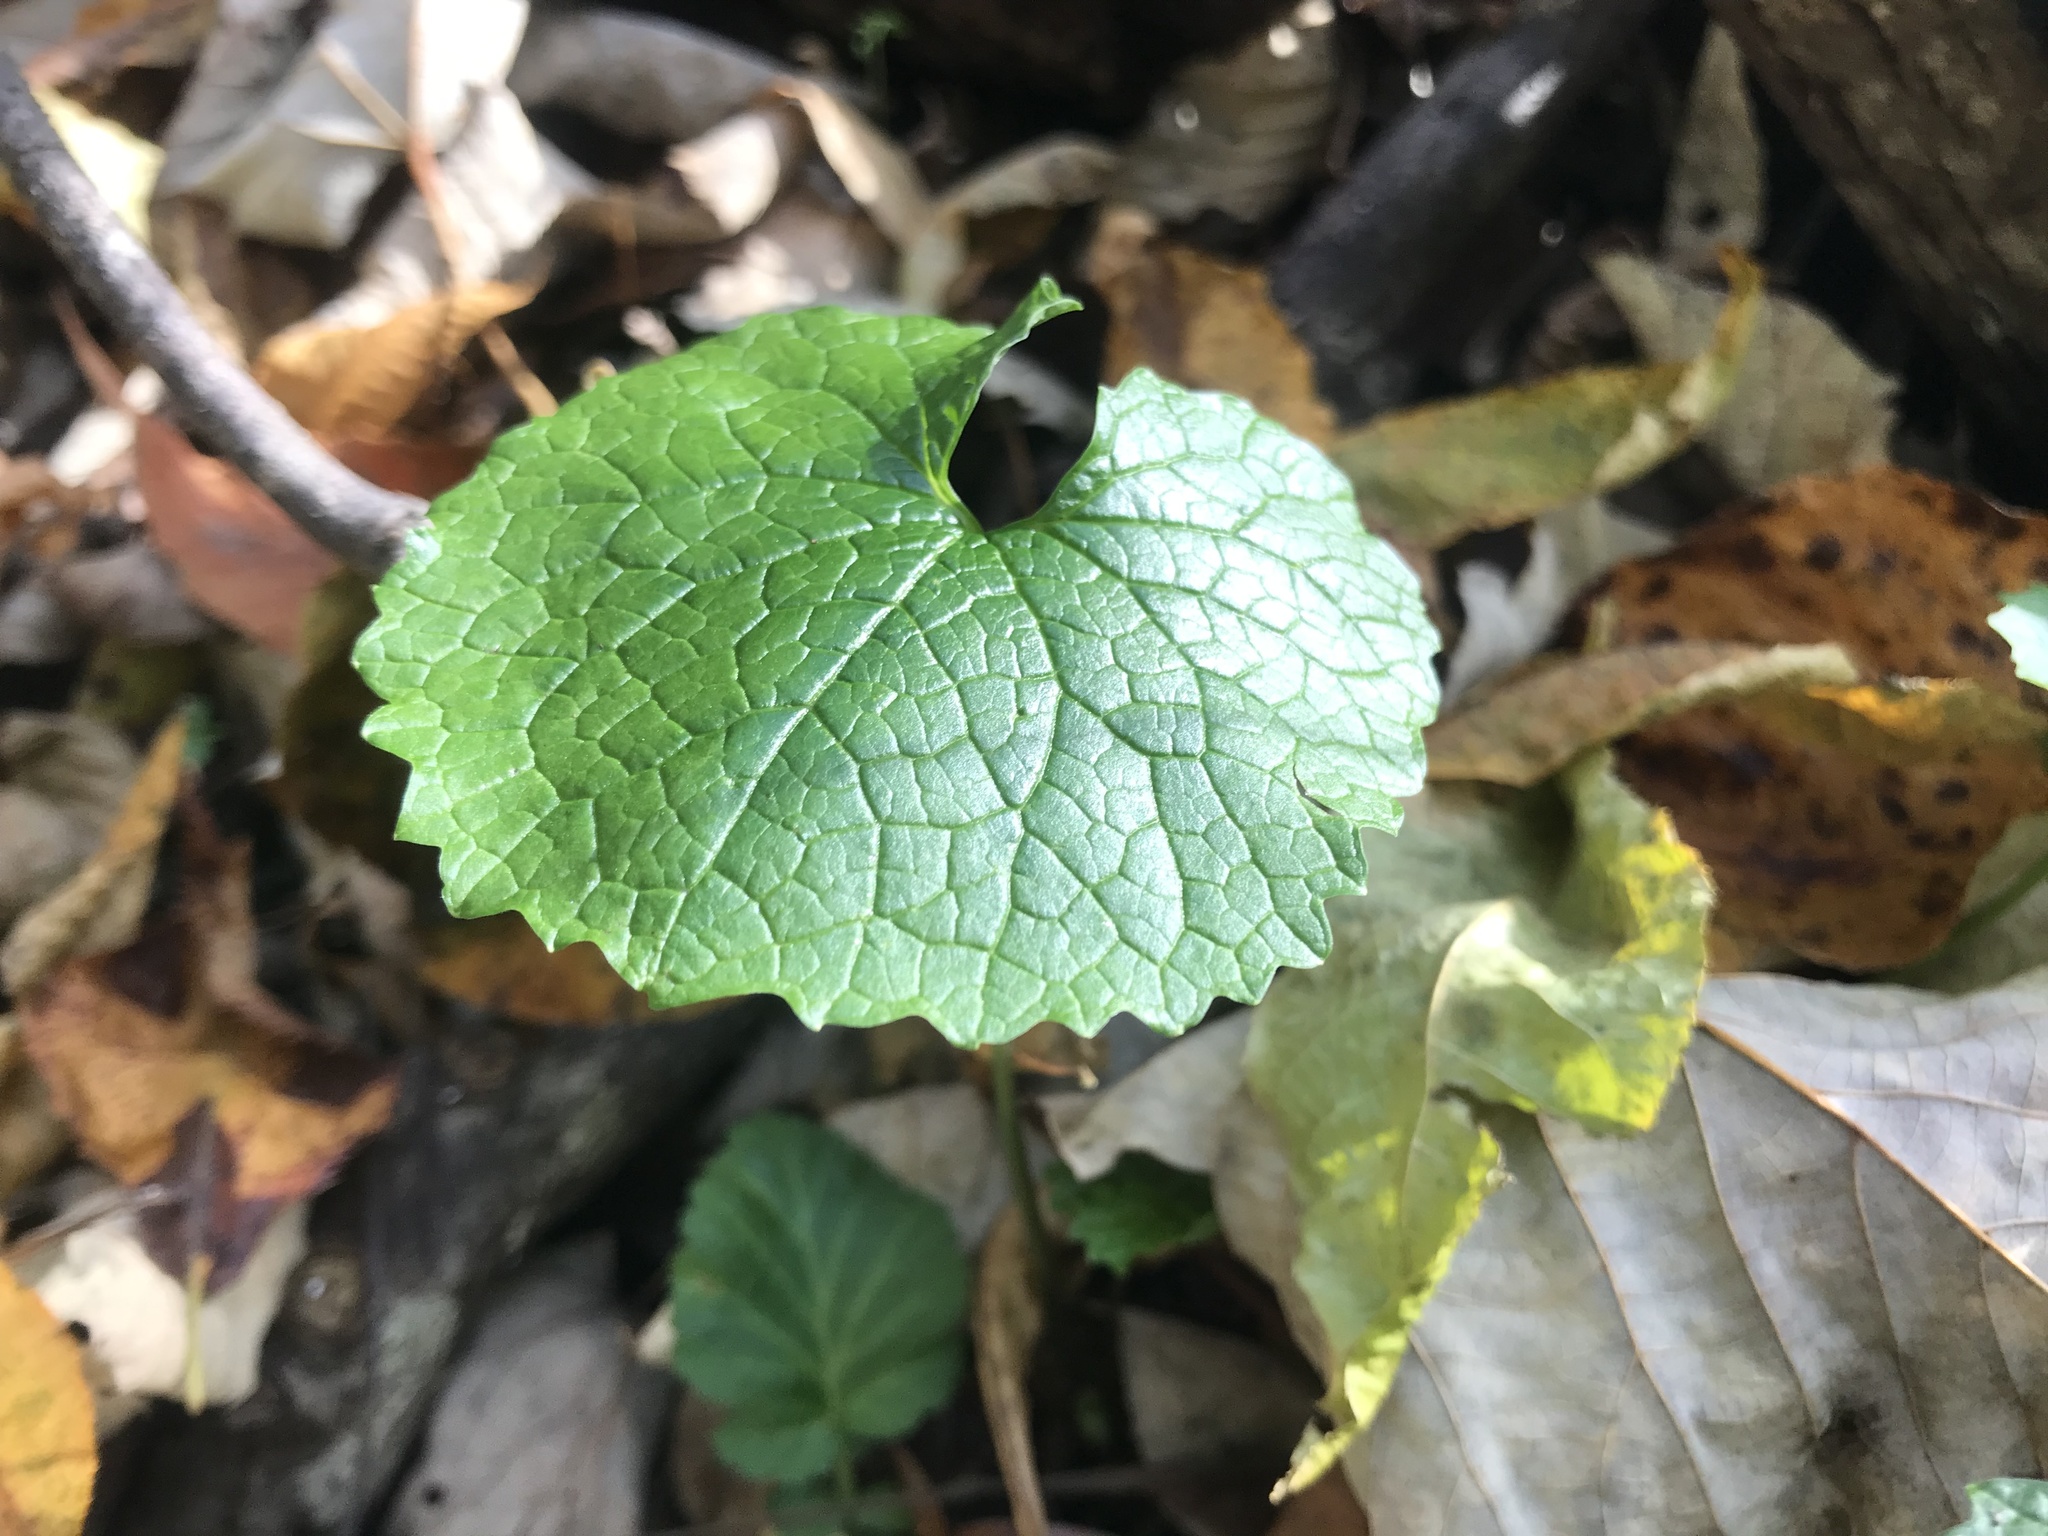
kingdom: Plantae
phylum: Tracheophyta
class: Magnoliopsida
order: Brassicales
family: Brassicaceae
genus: Alliaria
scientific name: Alliaria petiolata
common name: Garlic mustard
